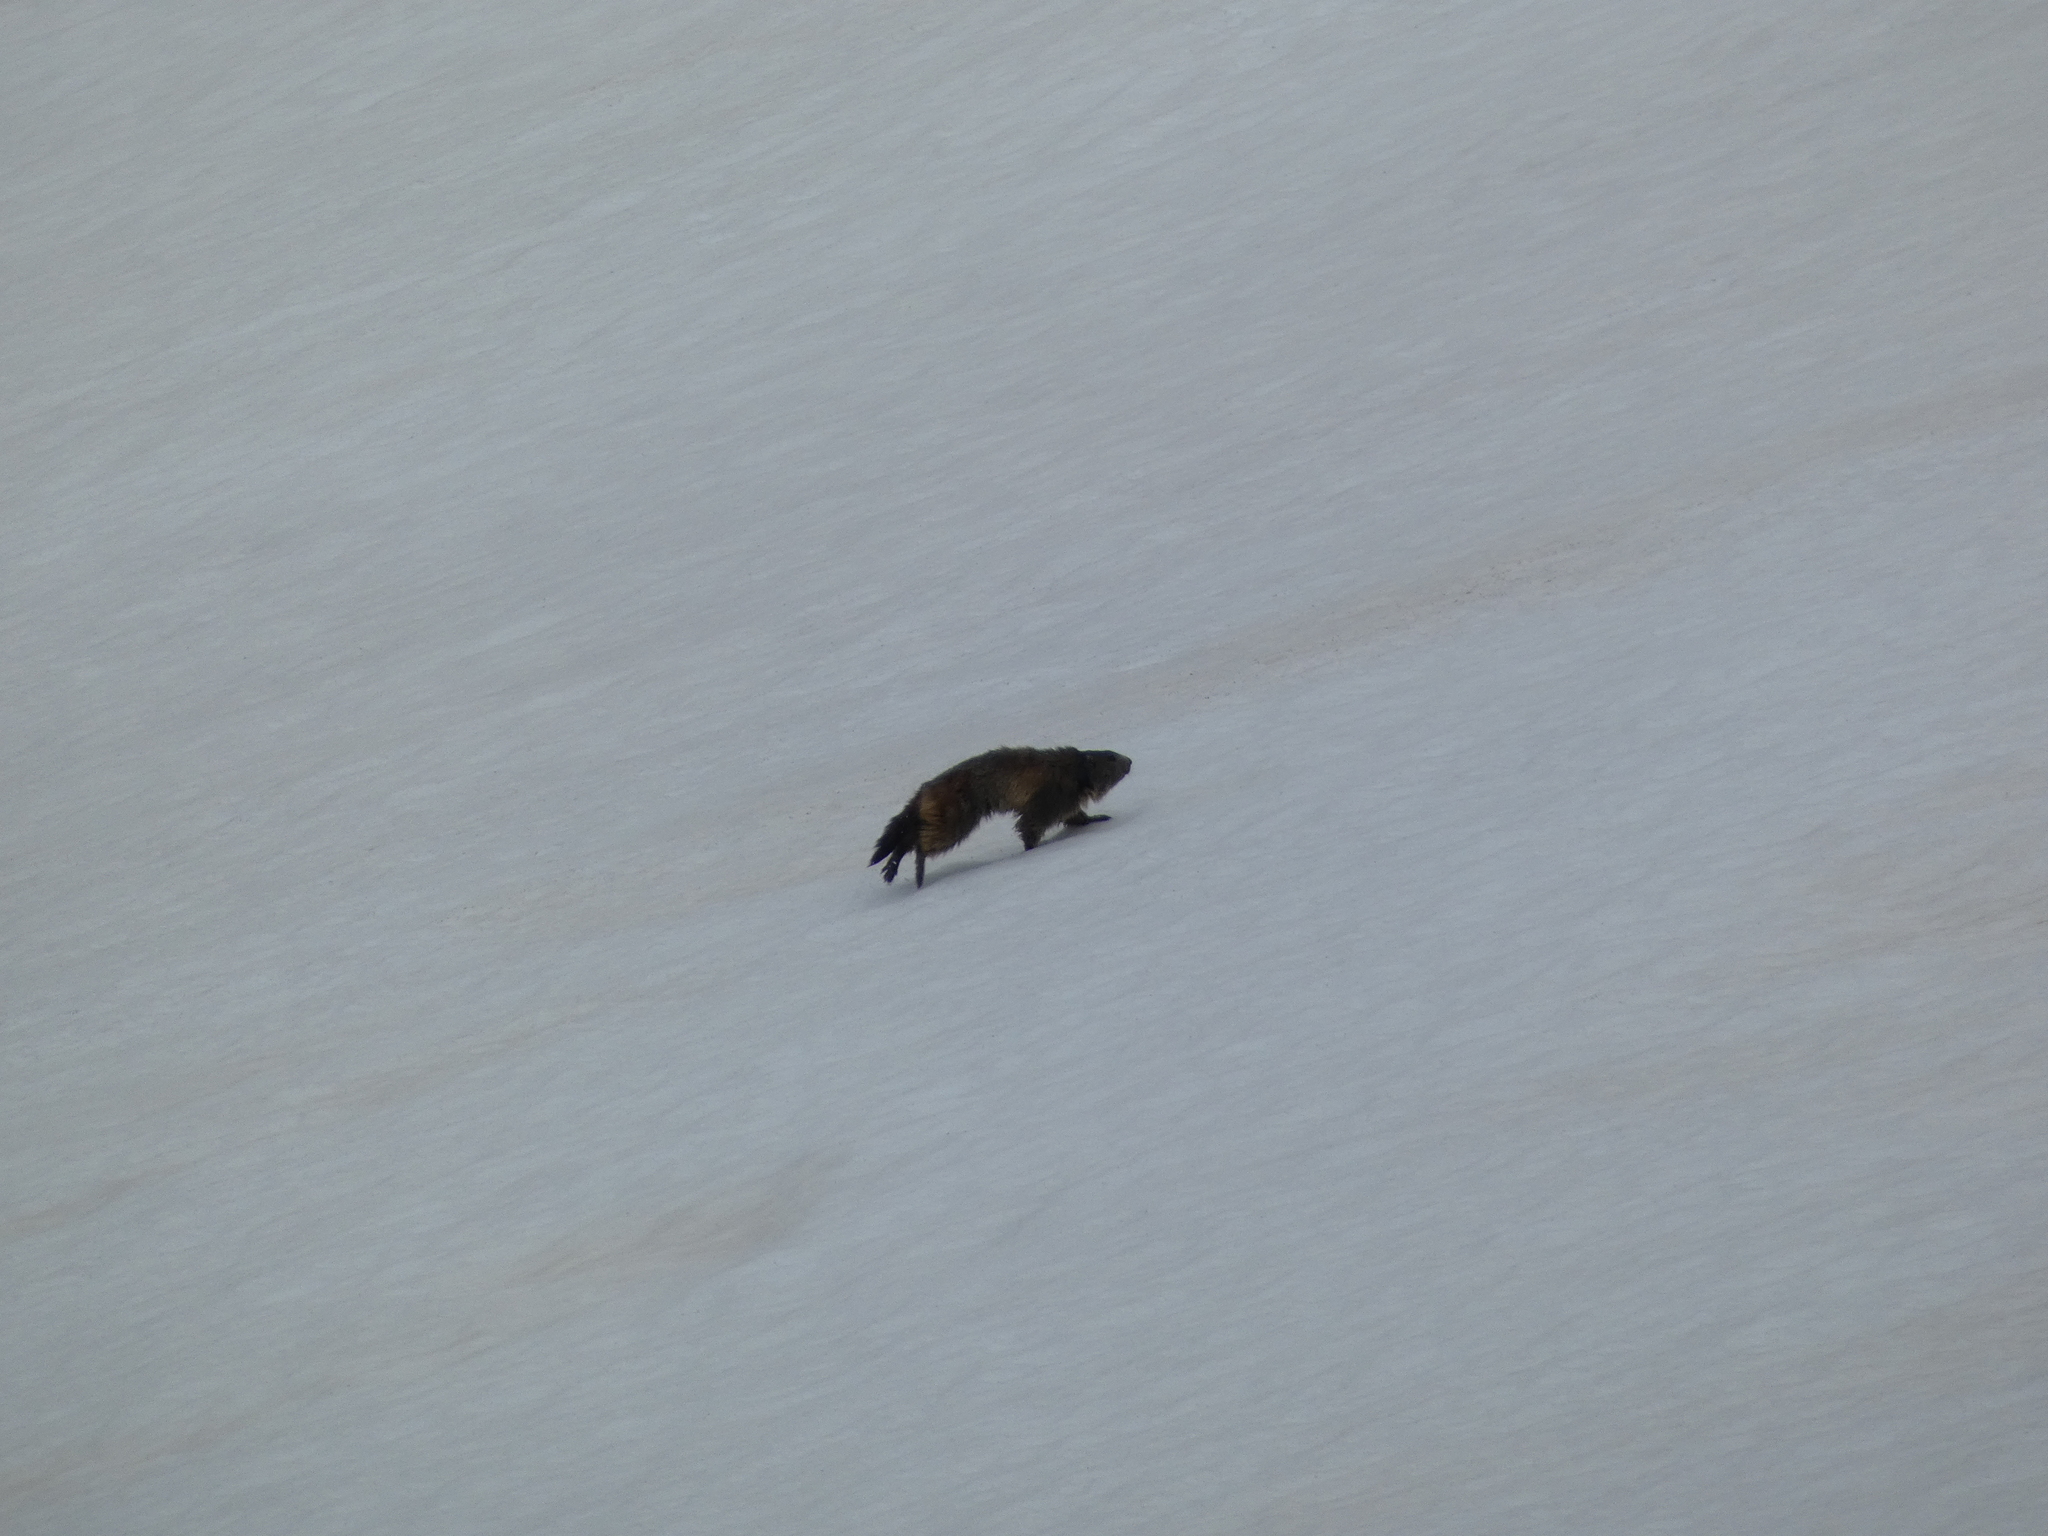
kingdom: Animalia
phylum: Chordata
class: Mammalia
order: Rodentia
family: Sciuridae
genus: Marmota
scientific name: Marmota marmota
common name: Alpine marmot
